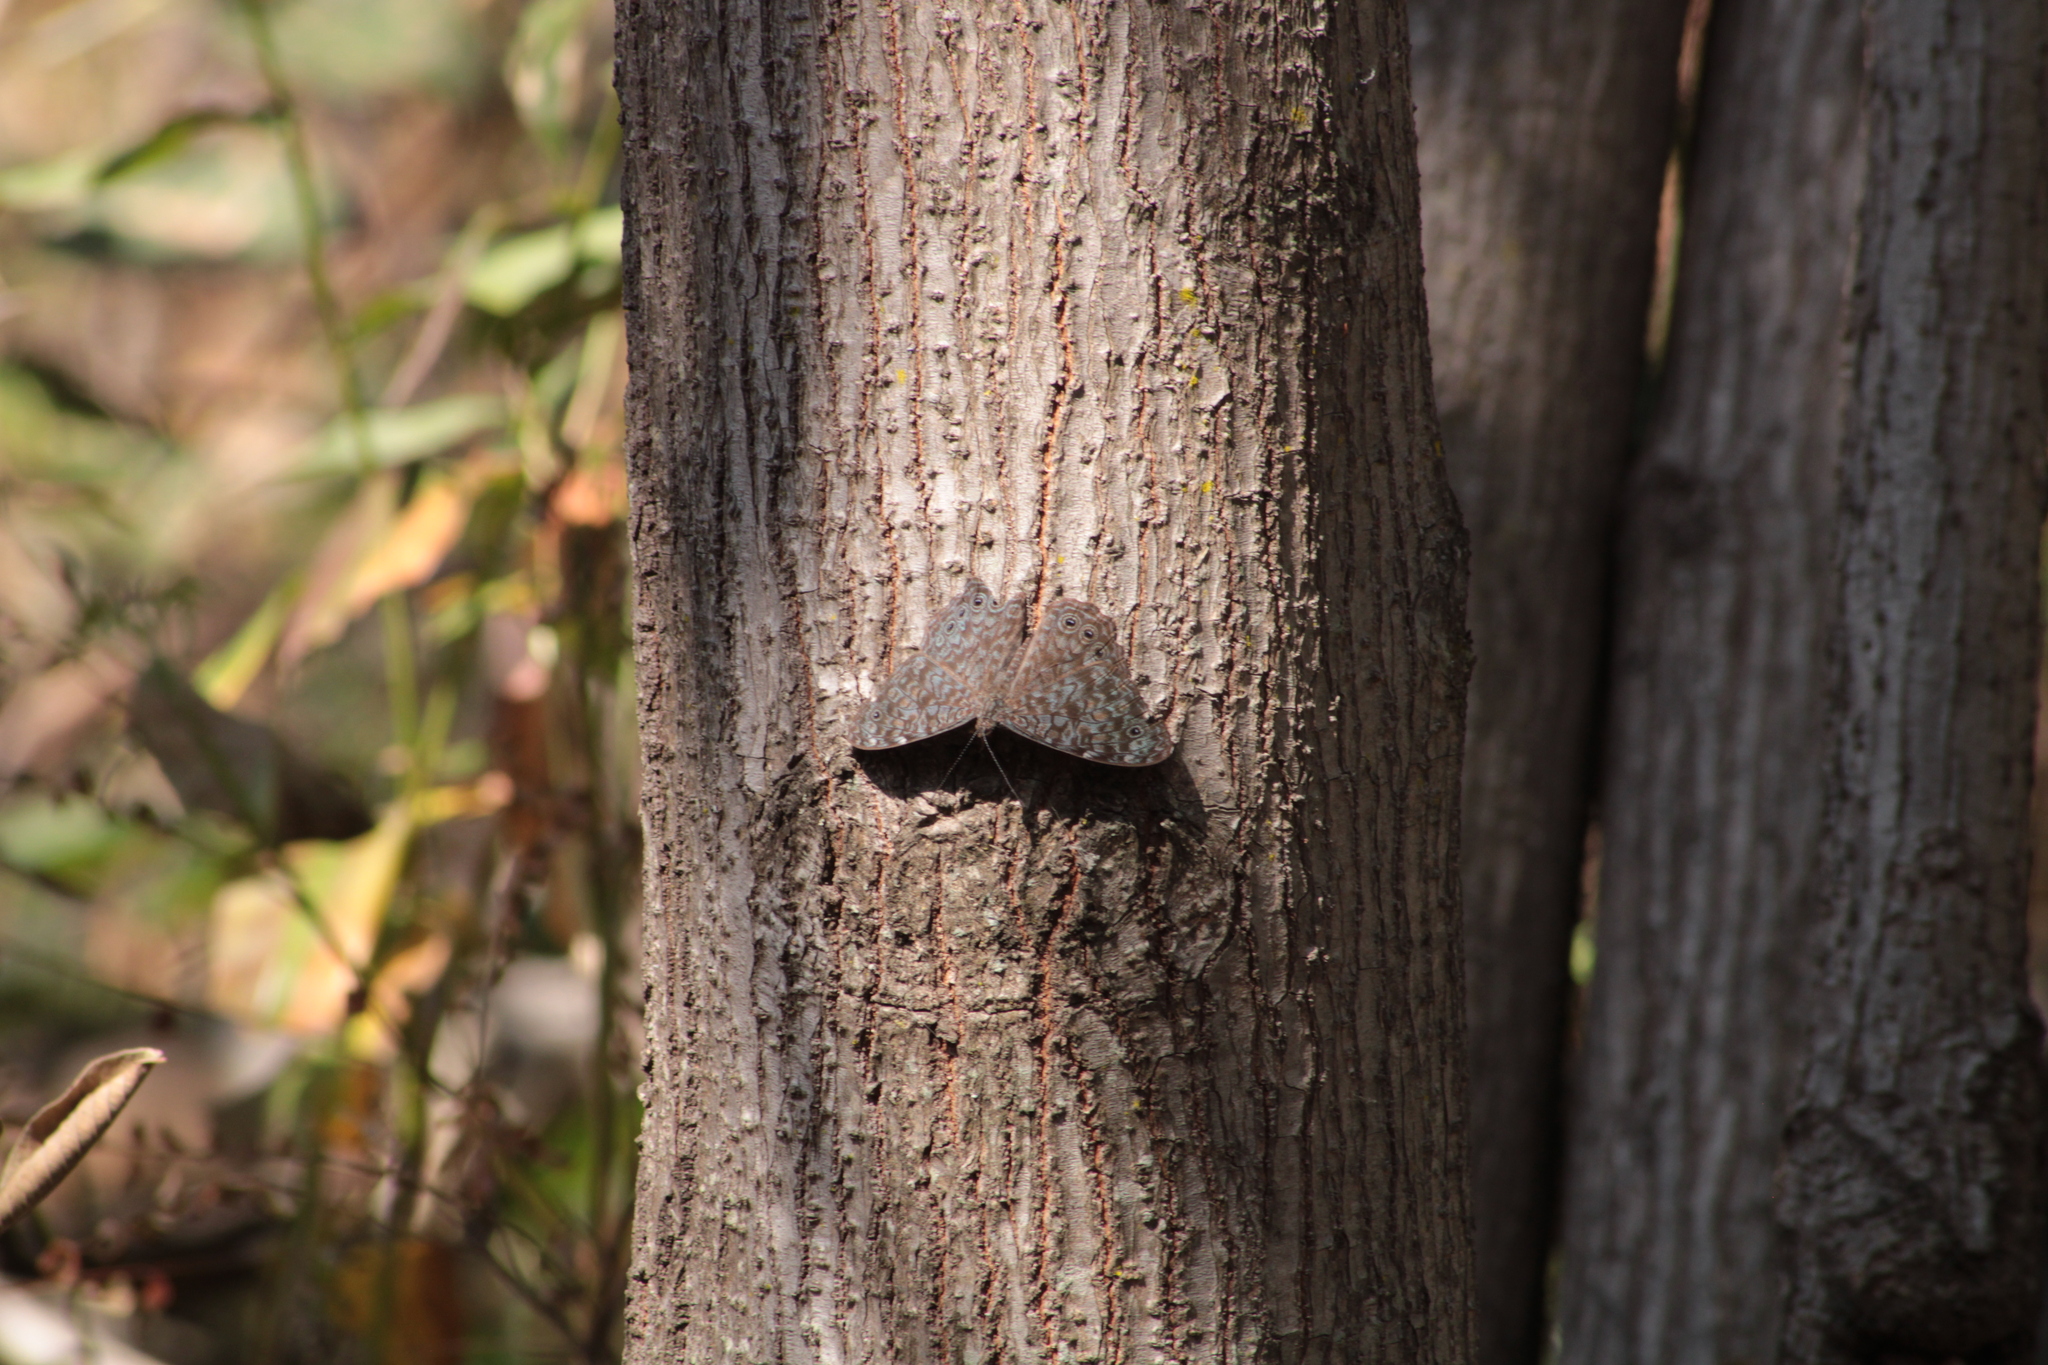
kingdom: Animalia
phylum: Arthropoda
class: Insecta
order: Lepidoptera
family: Nymphalidae
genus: Hamadryas
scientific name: Hamadryas lelaps
